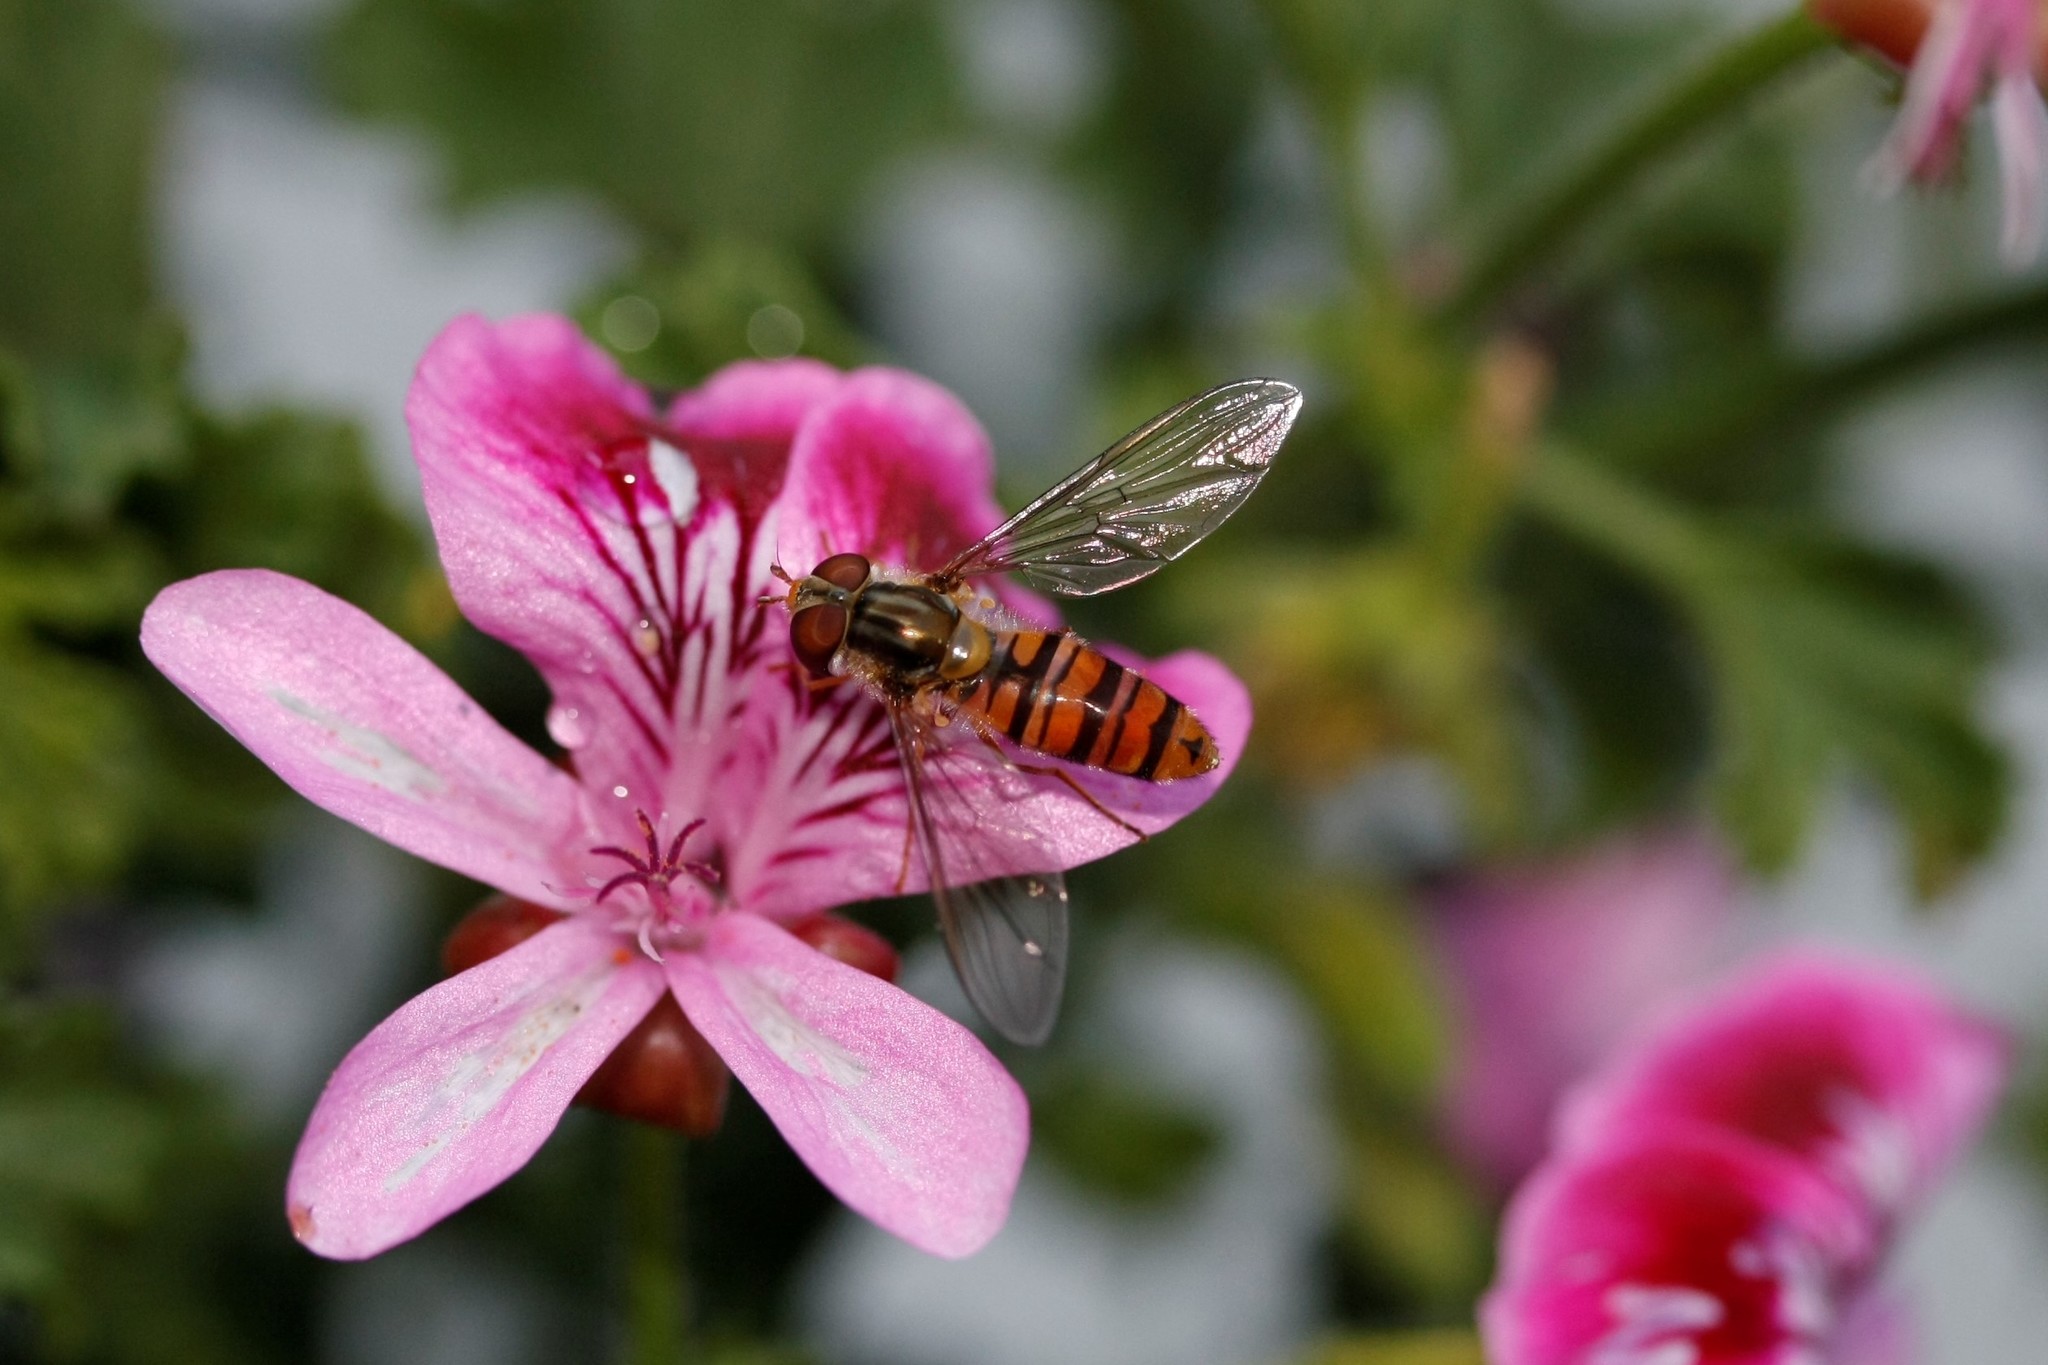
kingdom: Animalia
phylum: Arthropoda
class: Insecta
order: Diptera
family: Syrphidae
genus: Episyrphus
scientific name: Episyrphus balteatus
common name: Marmalade hoverfly
